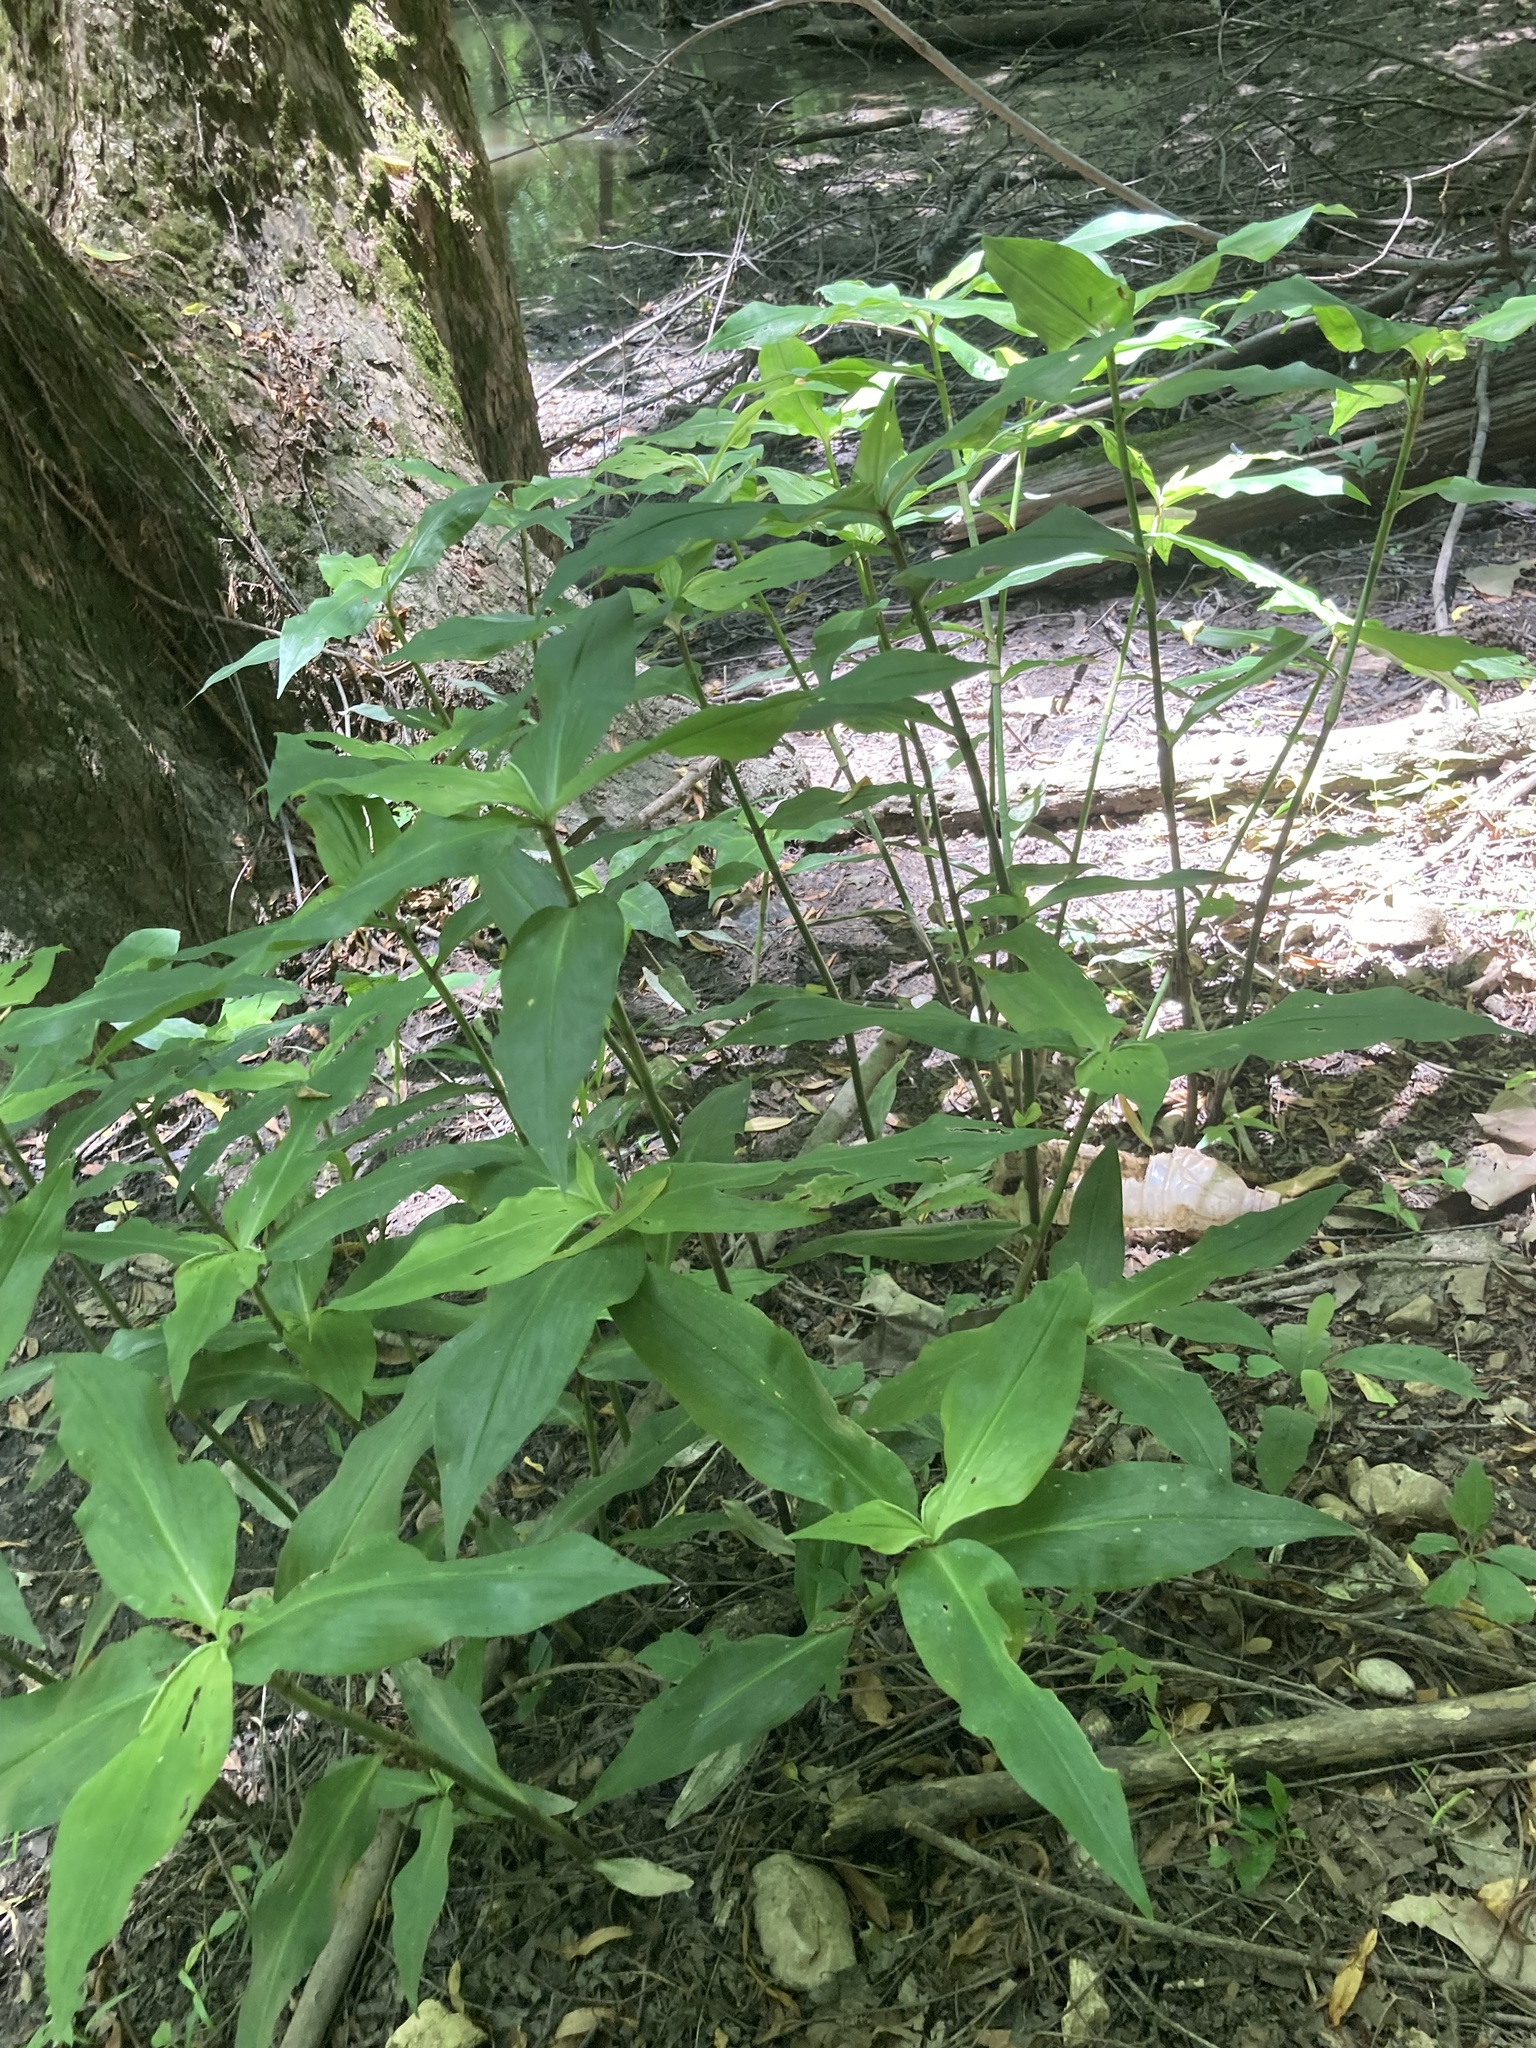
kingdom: Plantae
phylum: Tracheophyta
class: Liliopsida
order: Commelinales
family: Commelinaceae
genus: Commelina
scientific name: Commelina virginica
